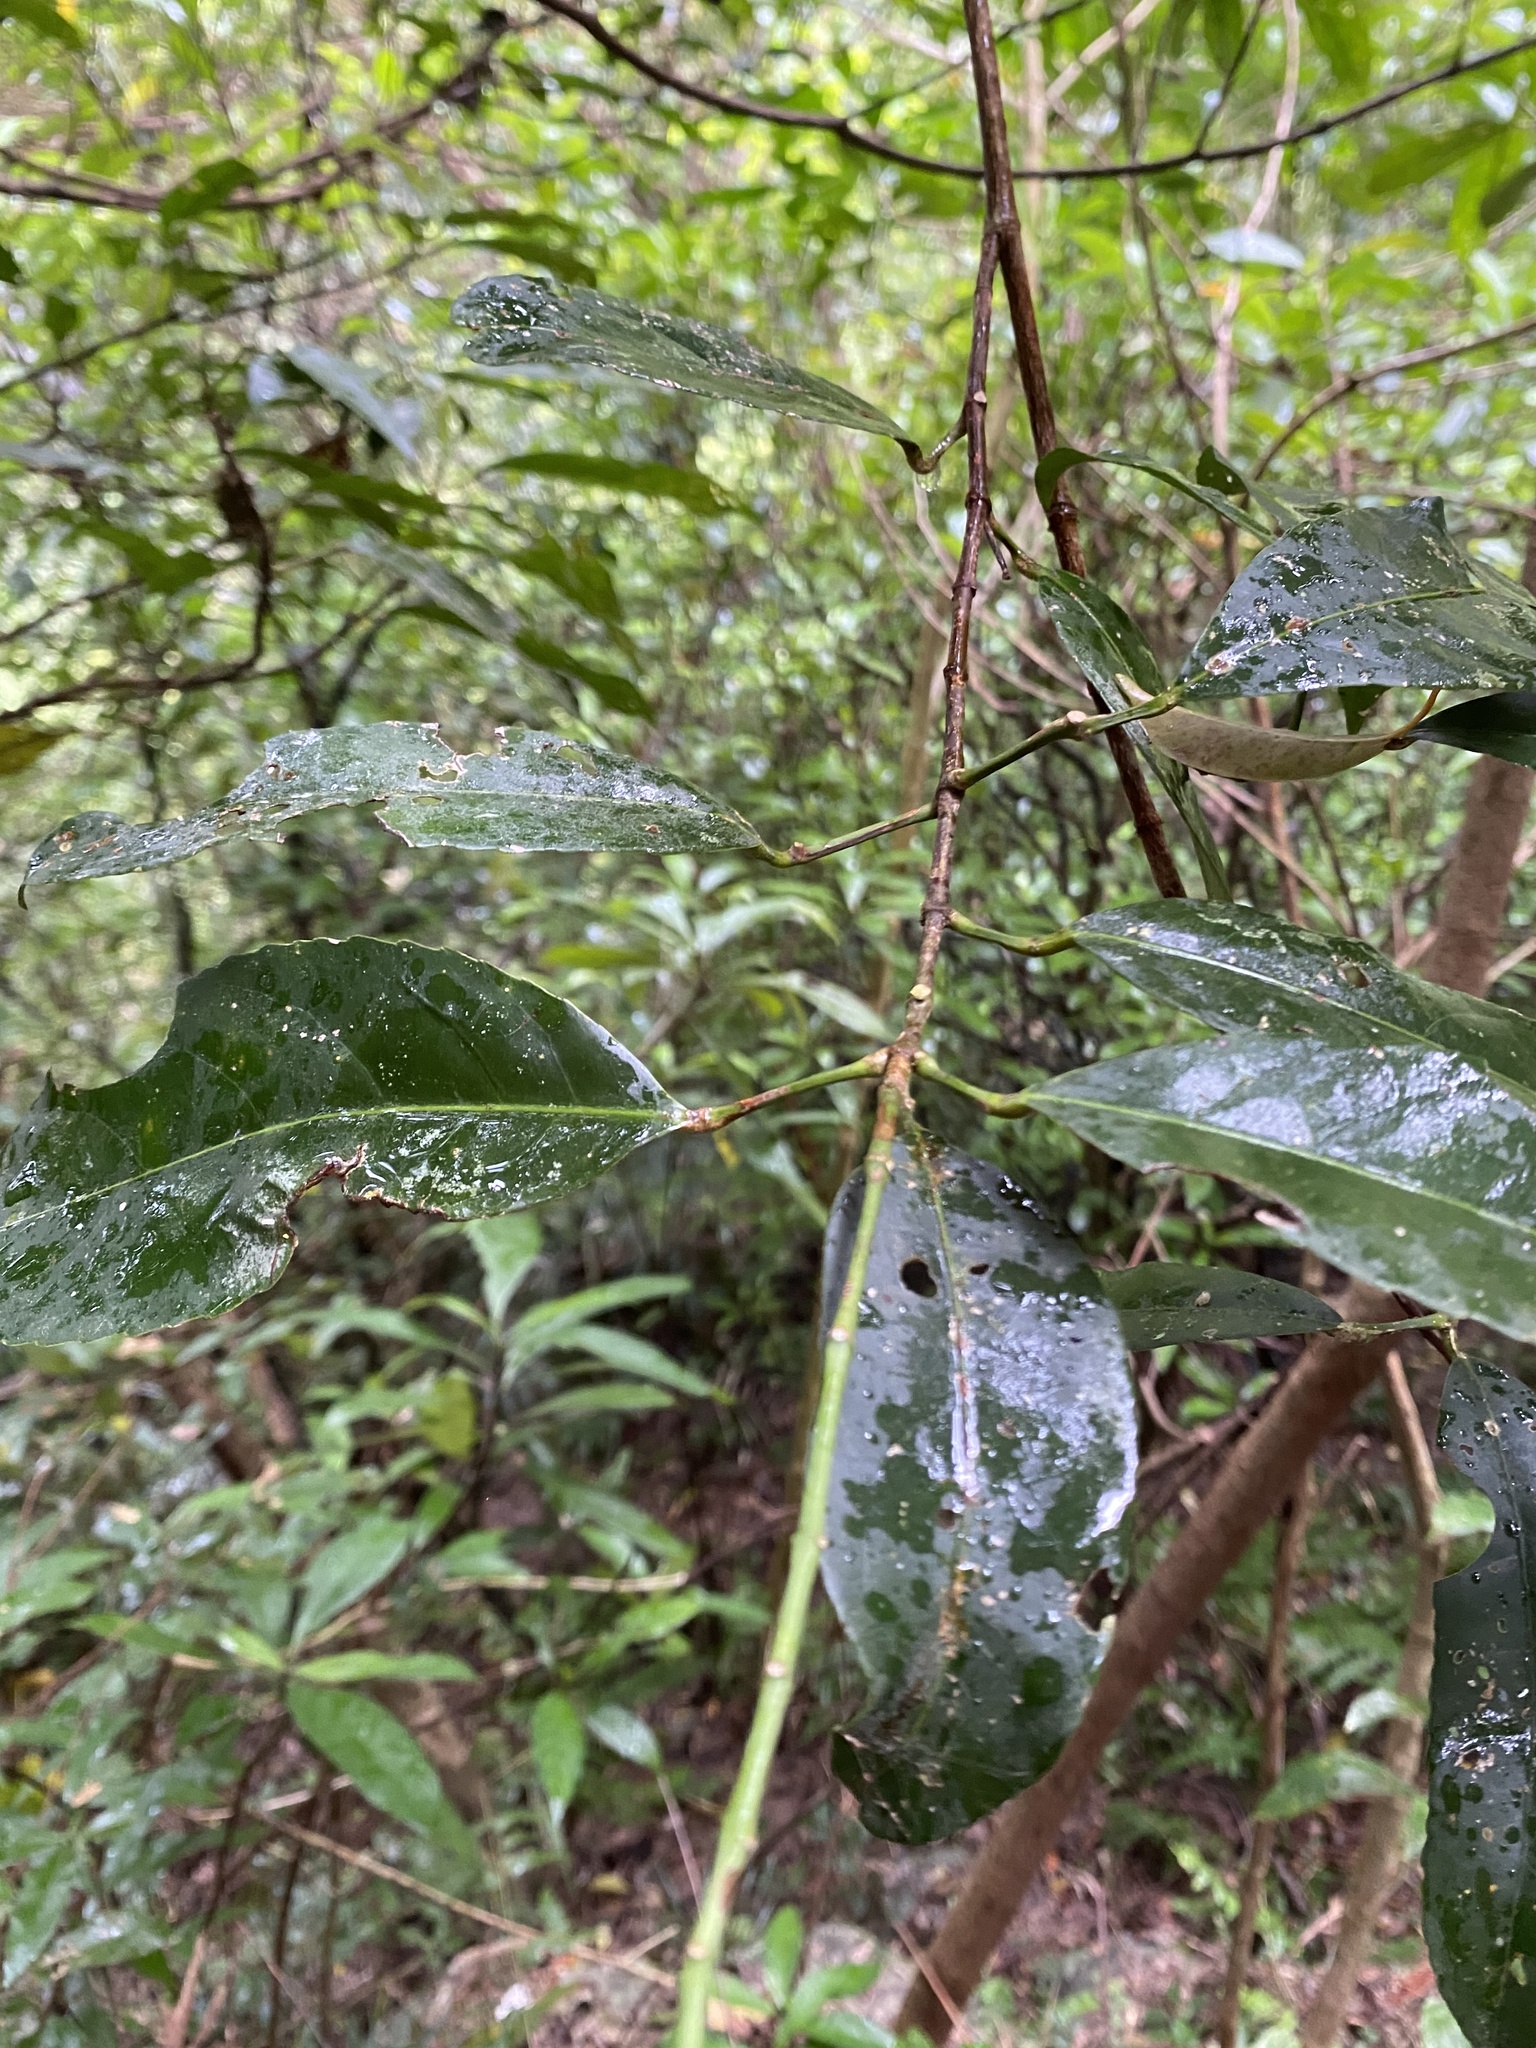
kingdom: Plantae
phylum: Tracheophyta
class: Magnoliopsida
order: Crossosomatales
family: Staphyleaceae
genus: Turpinia
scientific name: Turpinia formosana
